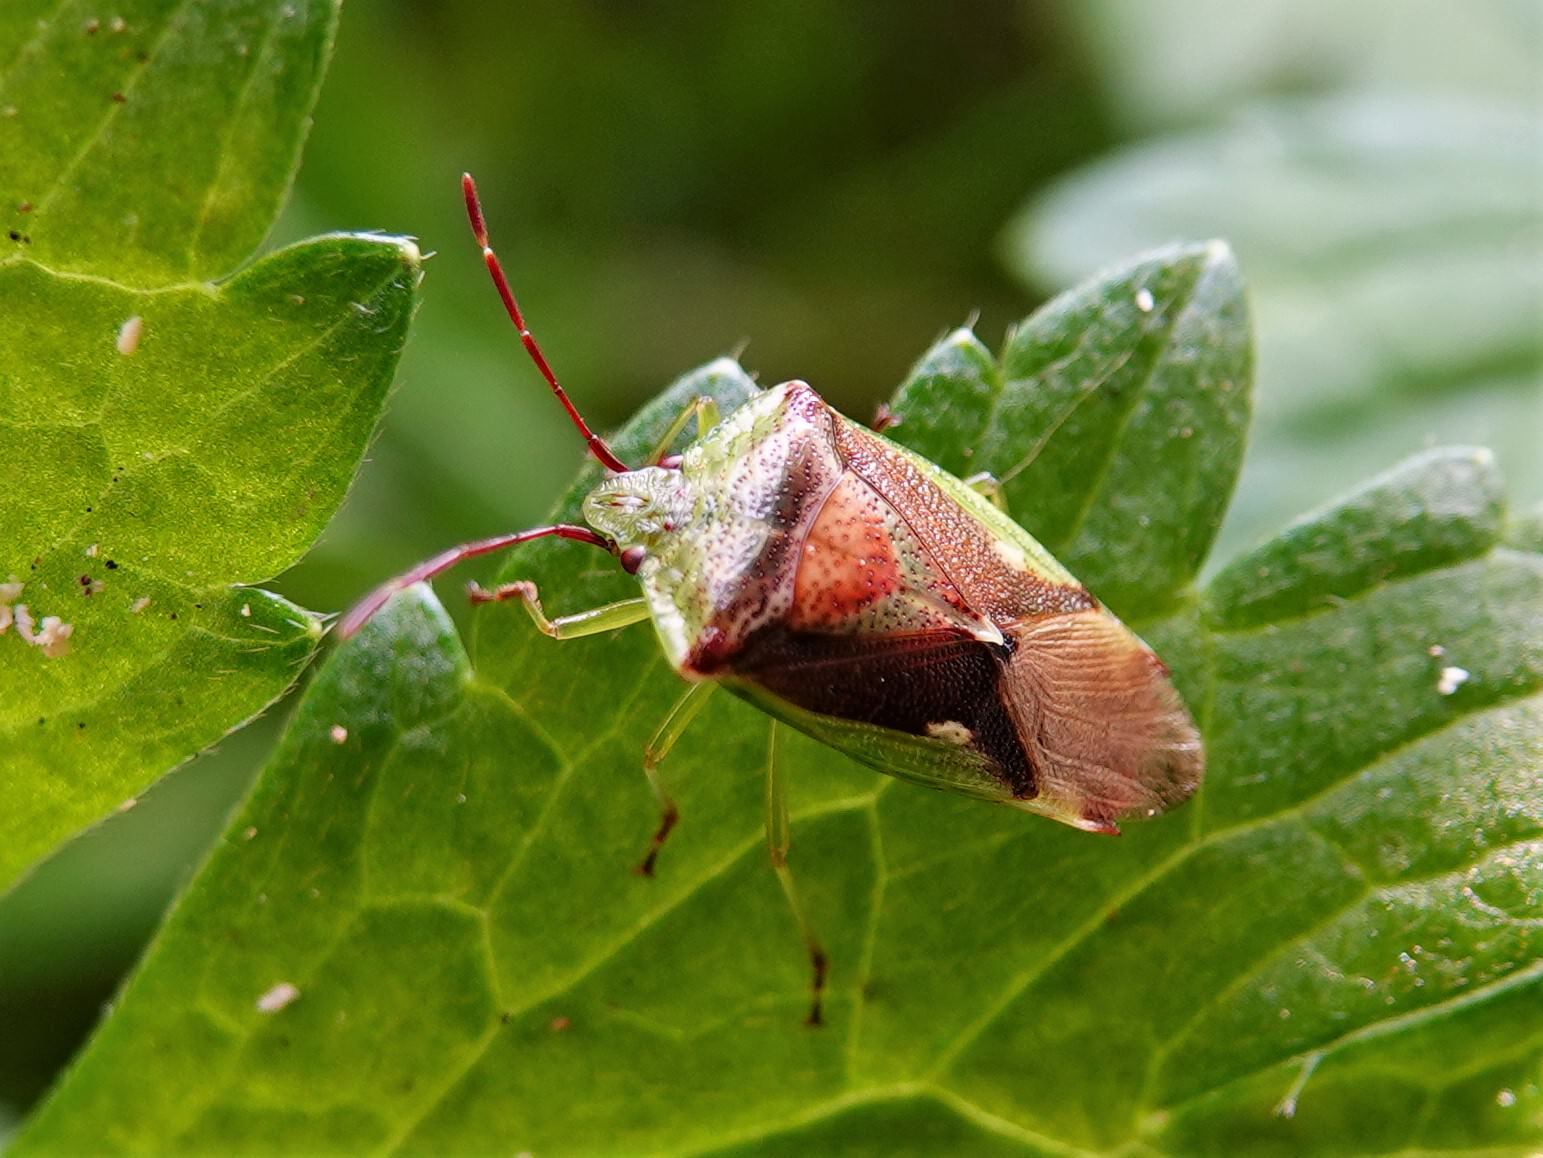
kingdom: Animalia
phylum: Arthropoda
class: Insecta
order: Hemiptera
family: Acanthosomatidae
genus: Oncacontias
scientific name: Oncacontias vittatus
